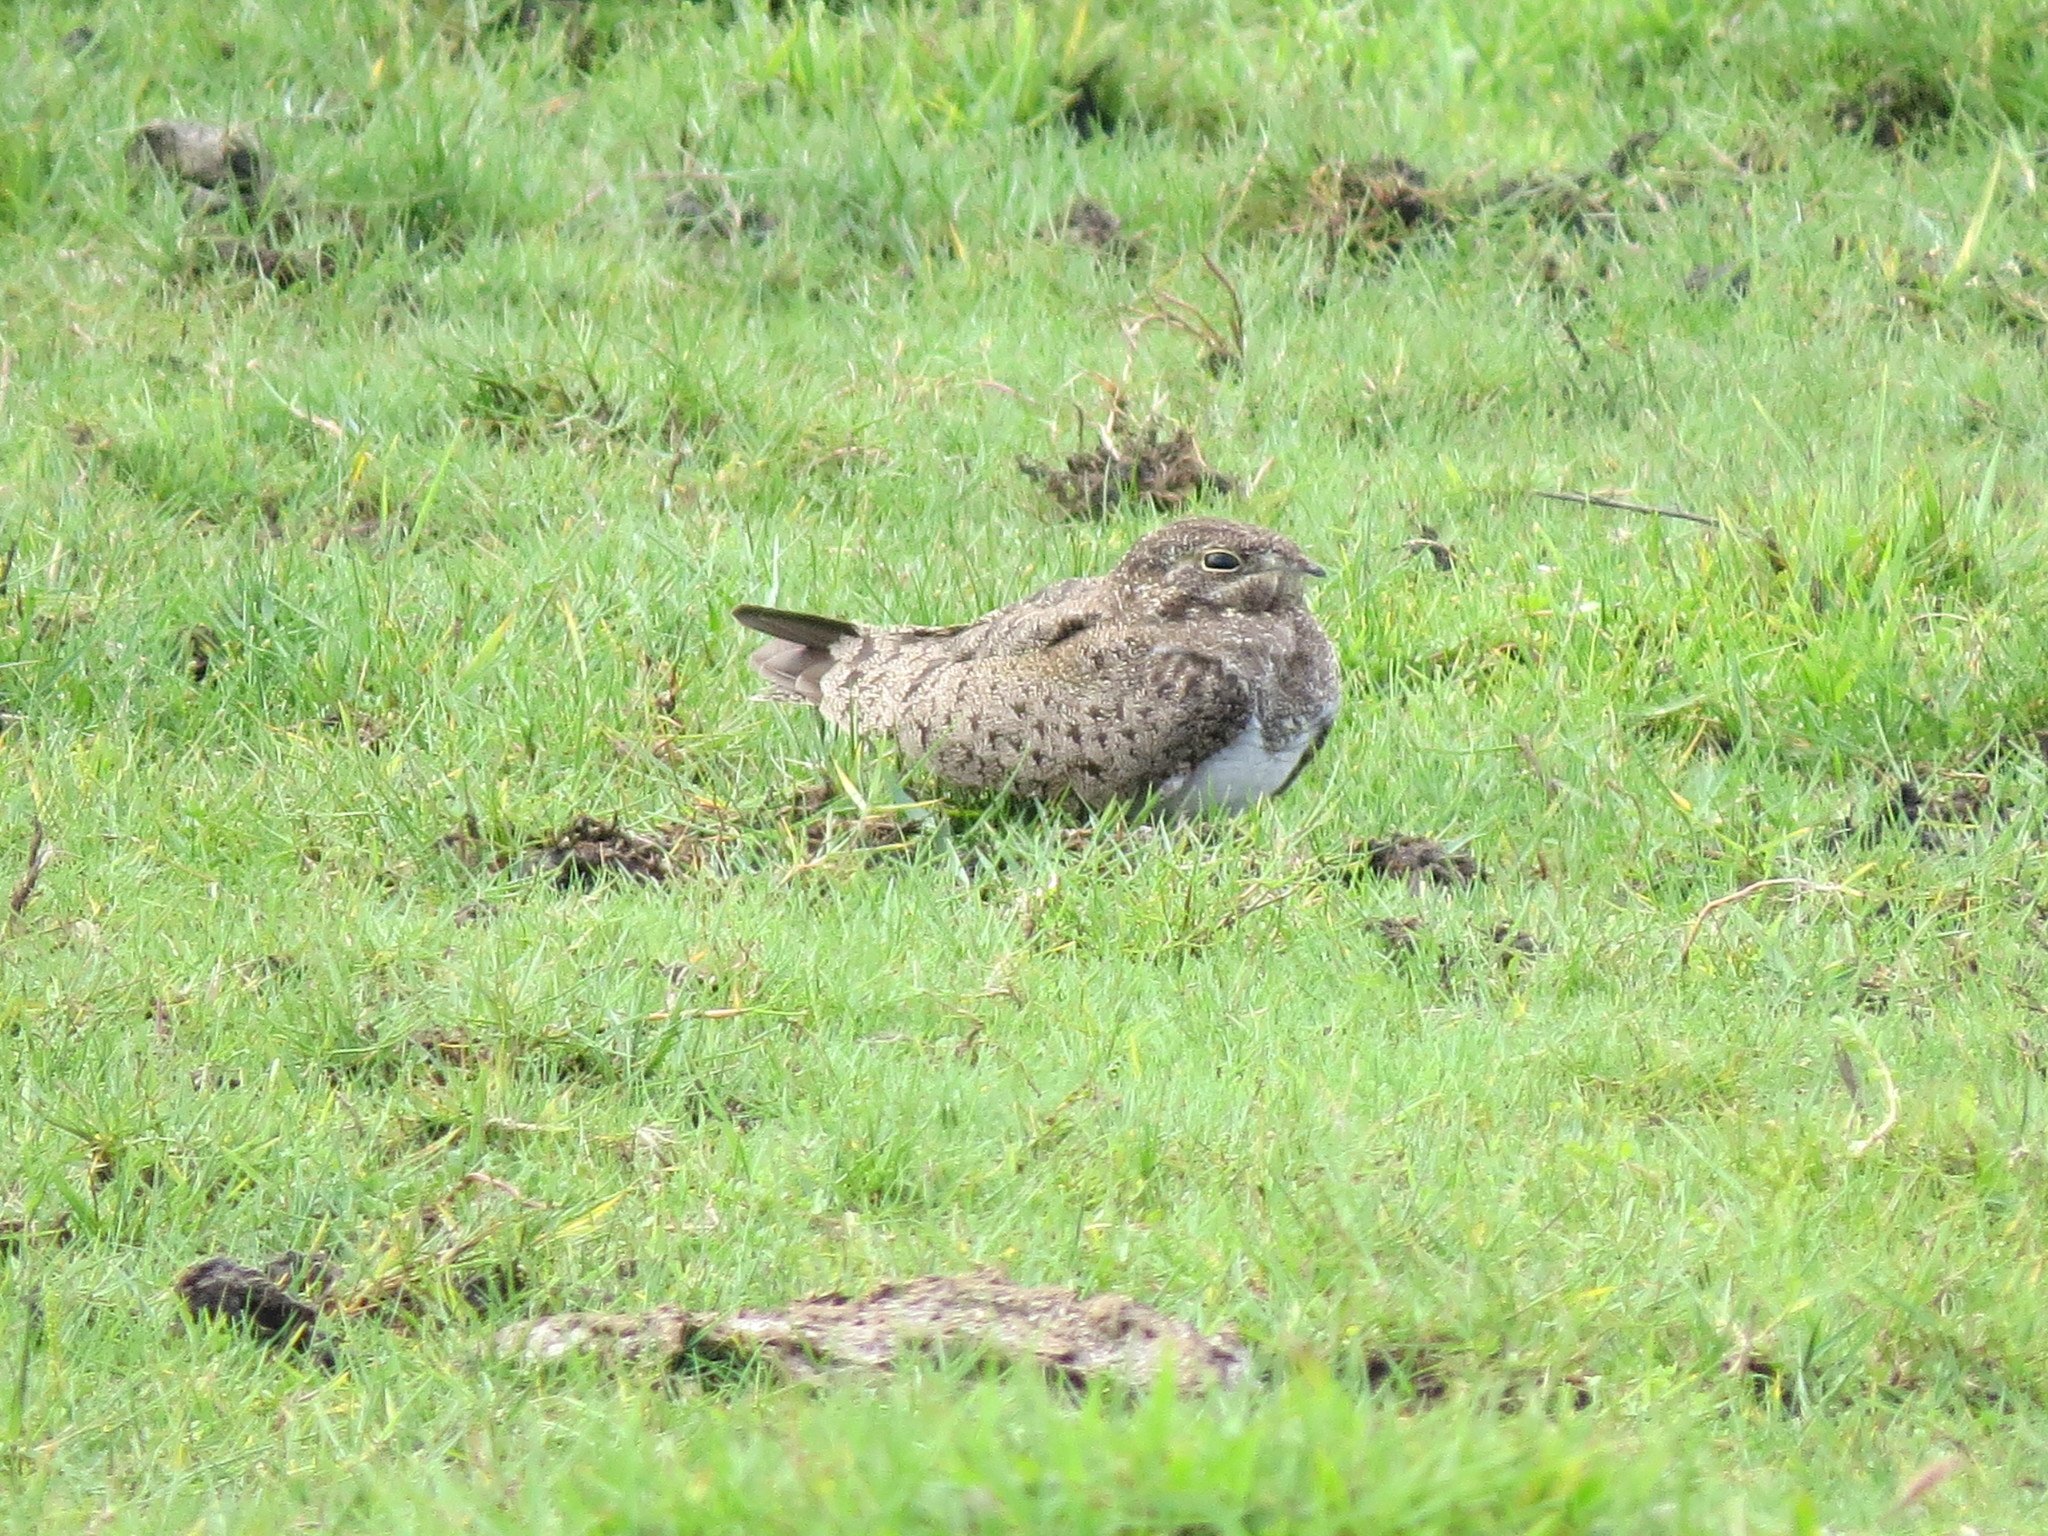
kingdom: Animalia
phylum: Chordata
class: Aves
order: Caprimulgiformes
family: Caprimulgidae
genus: Chordeiles
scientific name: Chordeiles nacunda
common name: Nacunda nighthawk
